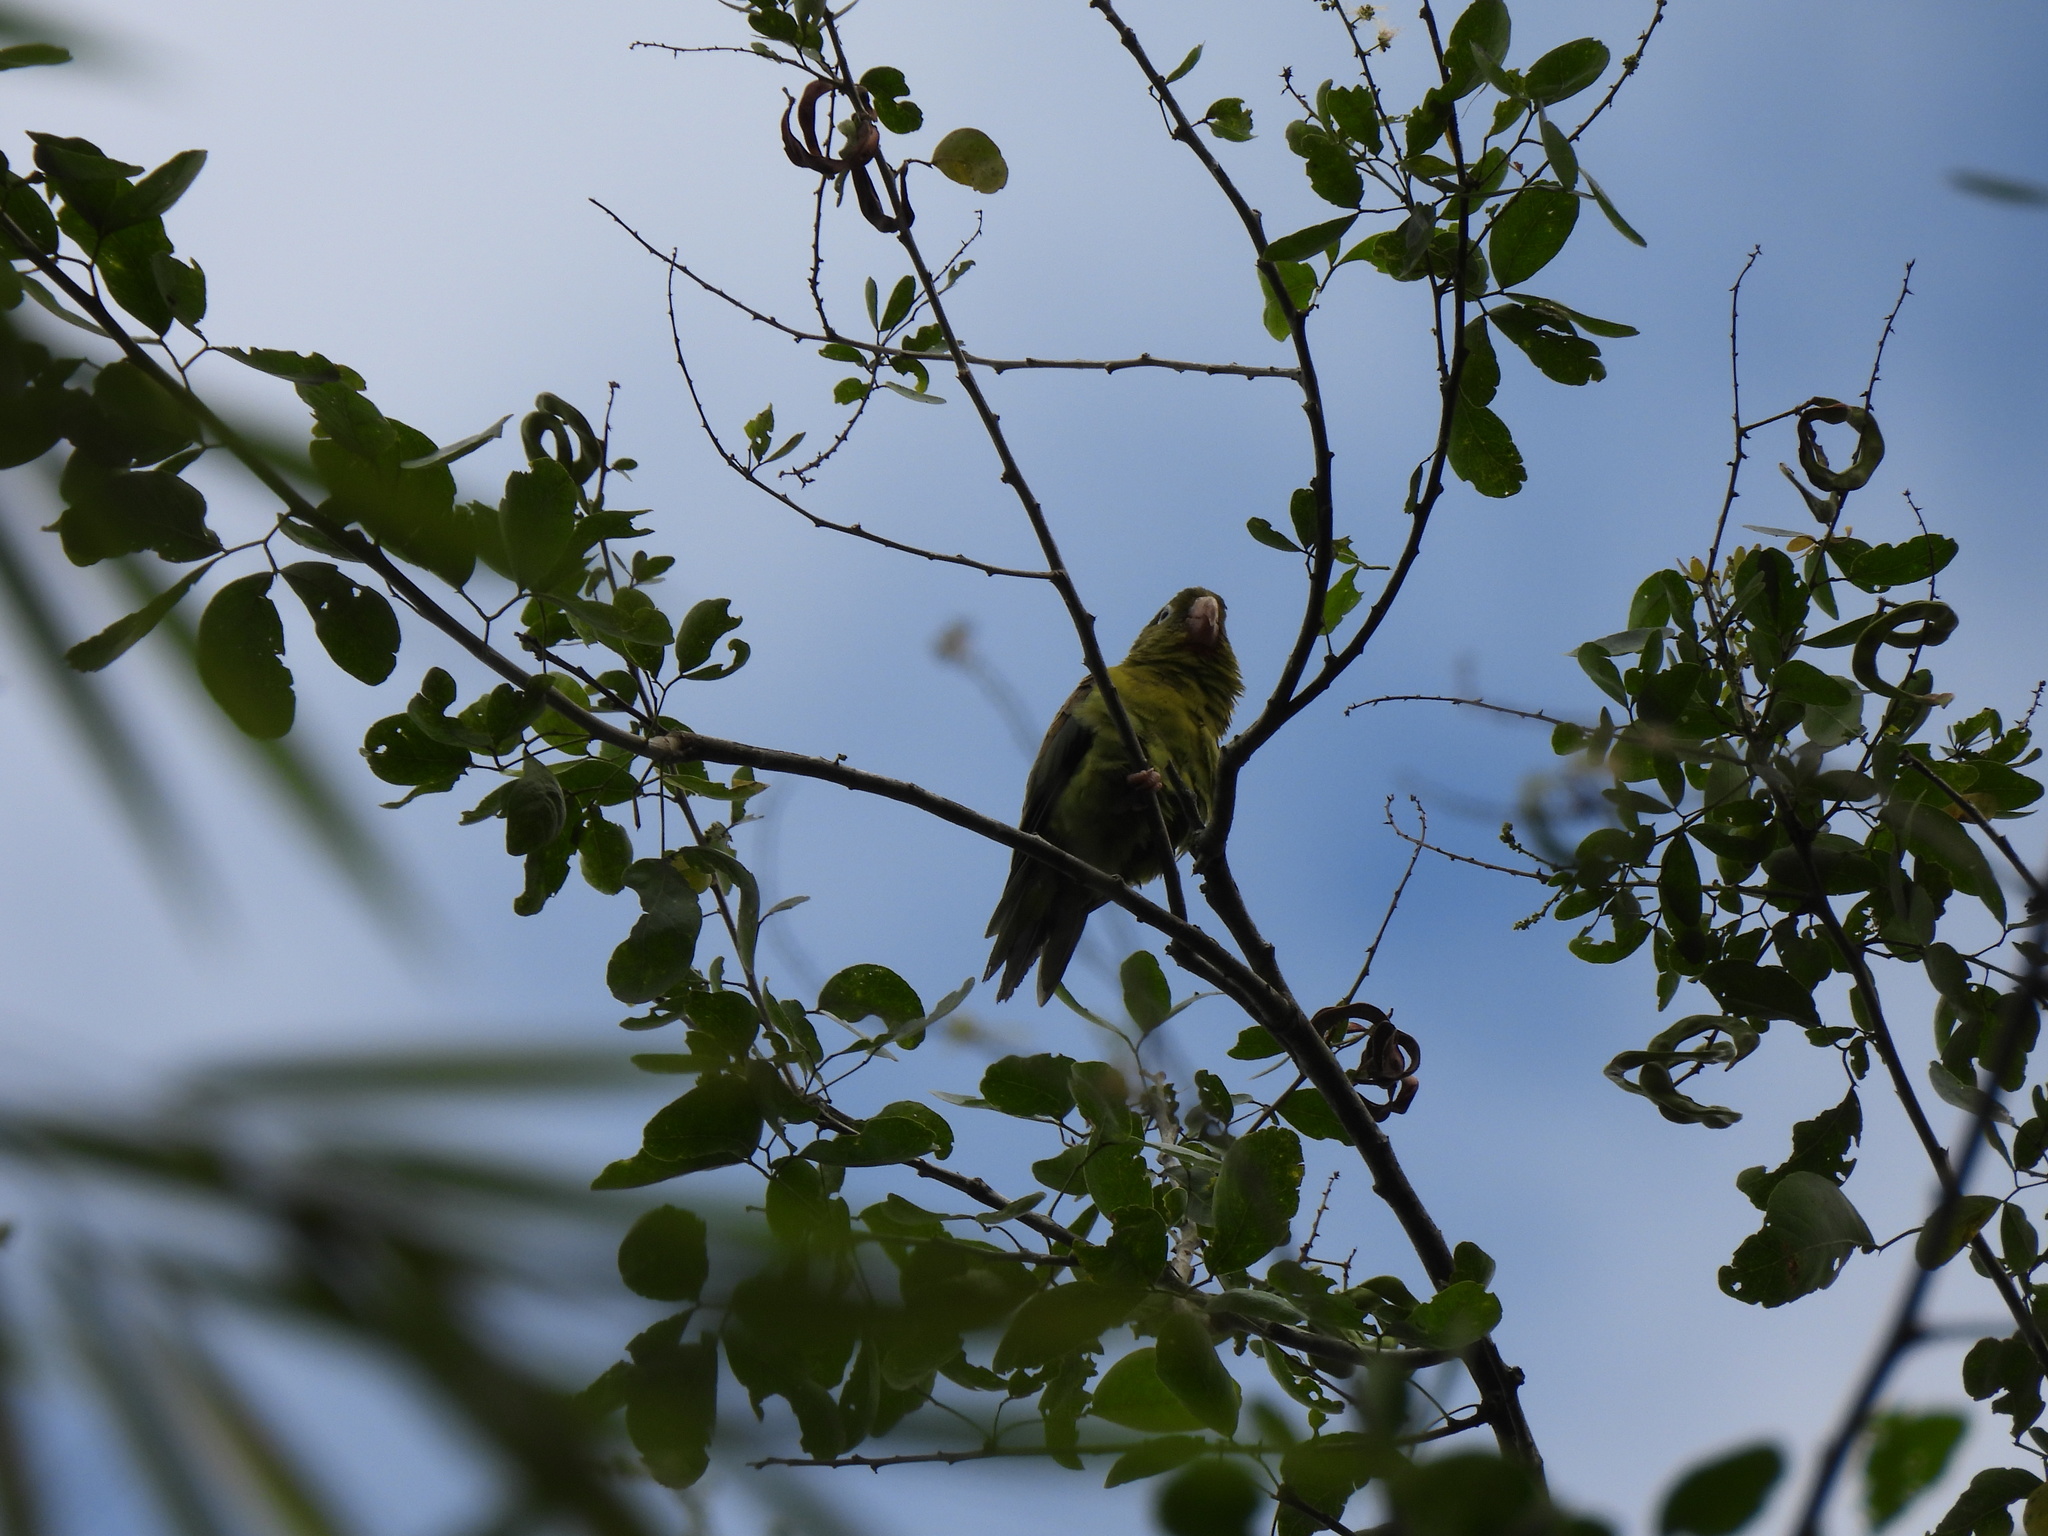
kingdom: Animalia
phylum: Chordata
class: Aves
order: Psittaciformes
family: Psittacidae
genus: Brotogeris
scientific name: Brotogeris jugularis
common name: Orange-chinned parakeet
